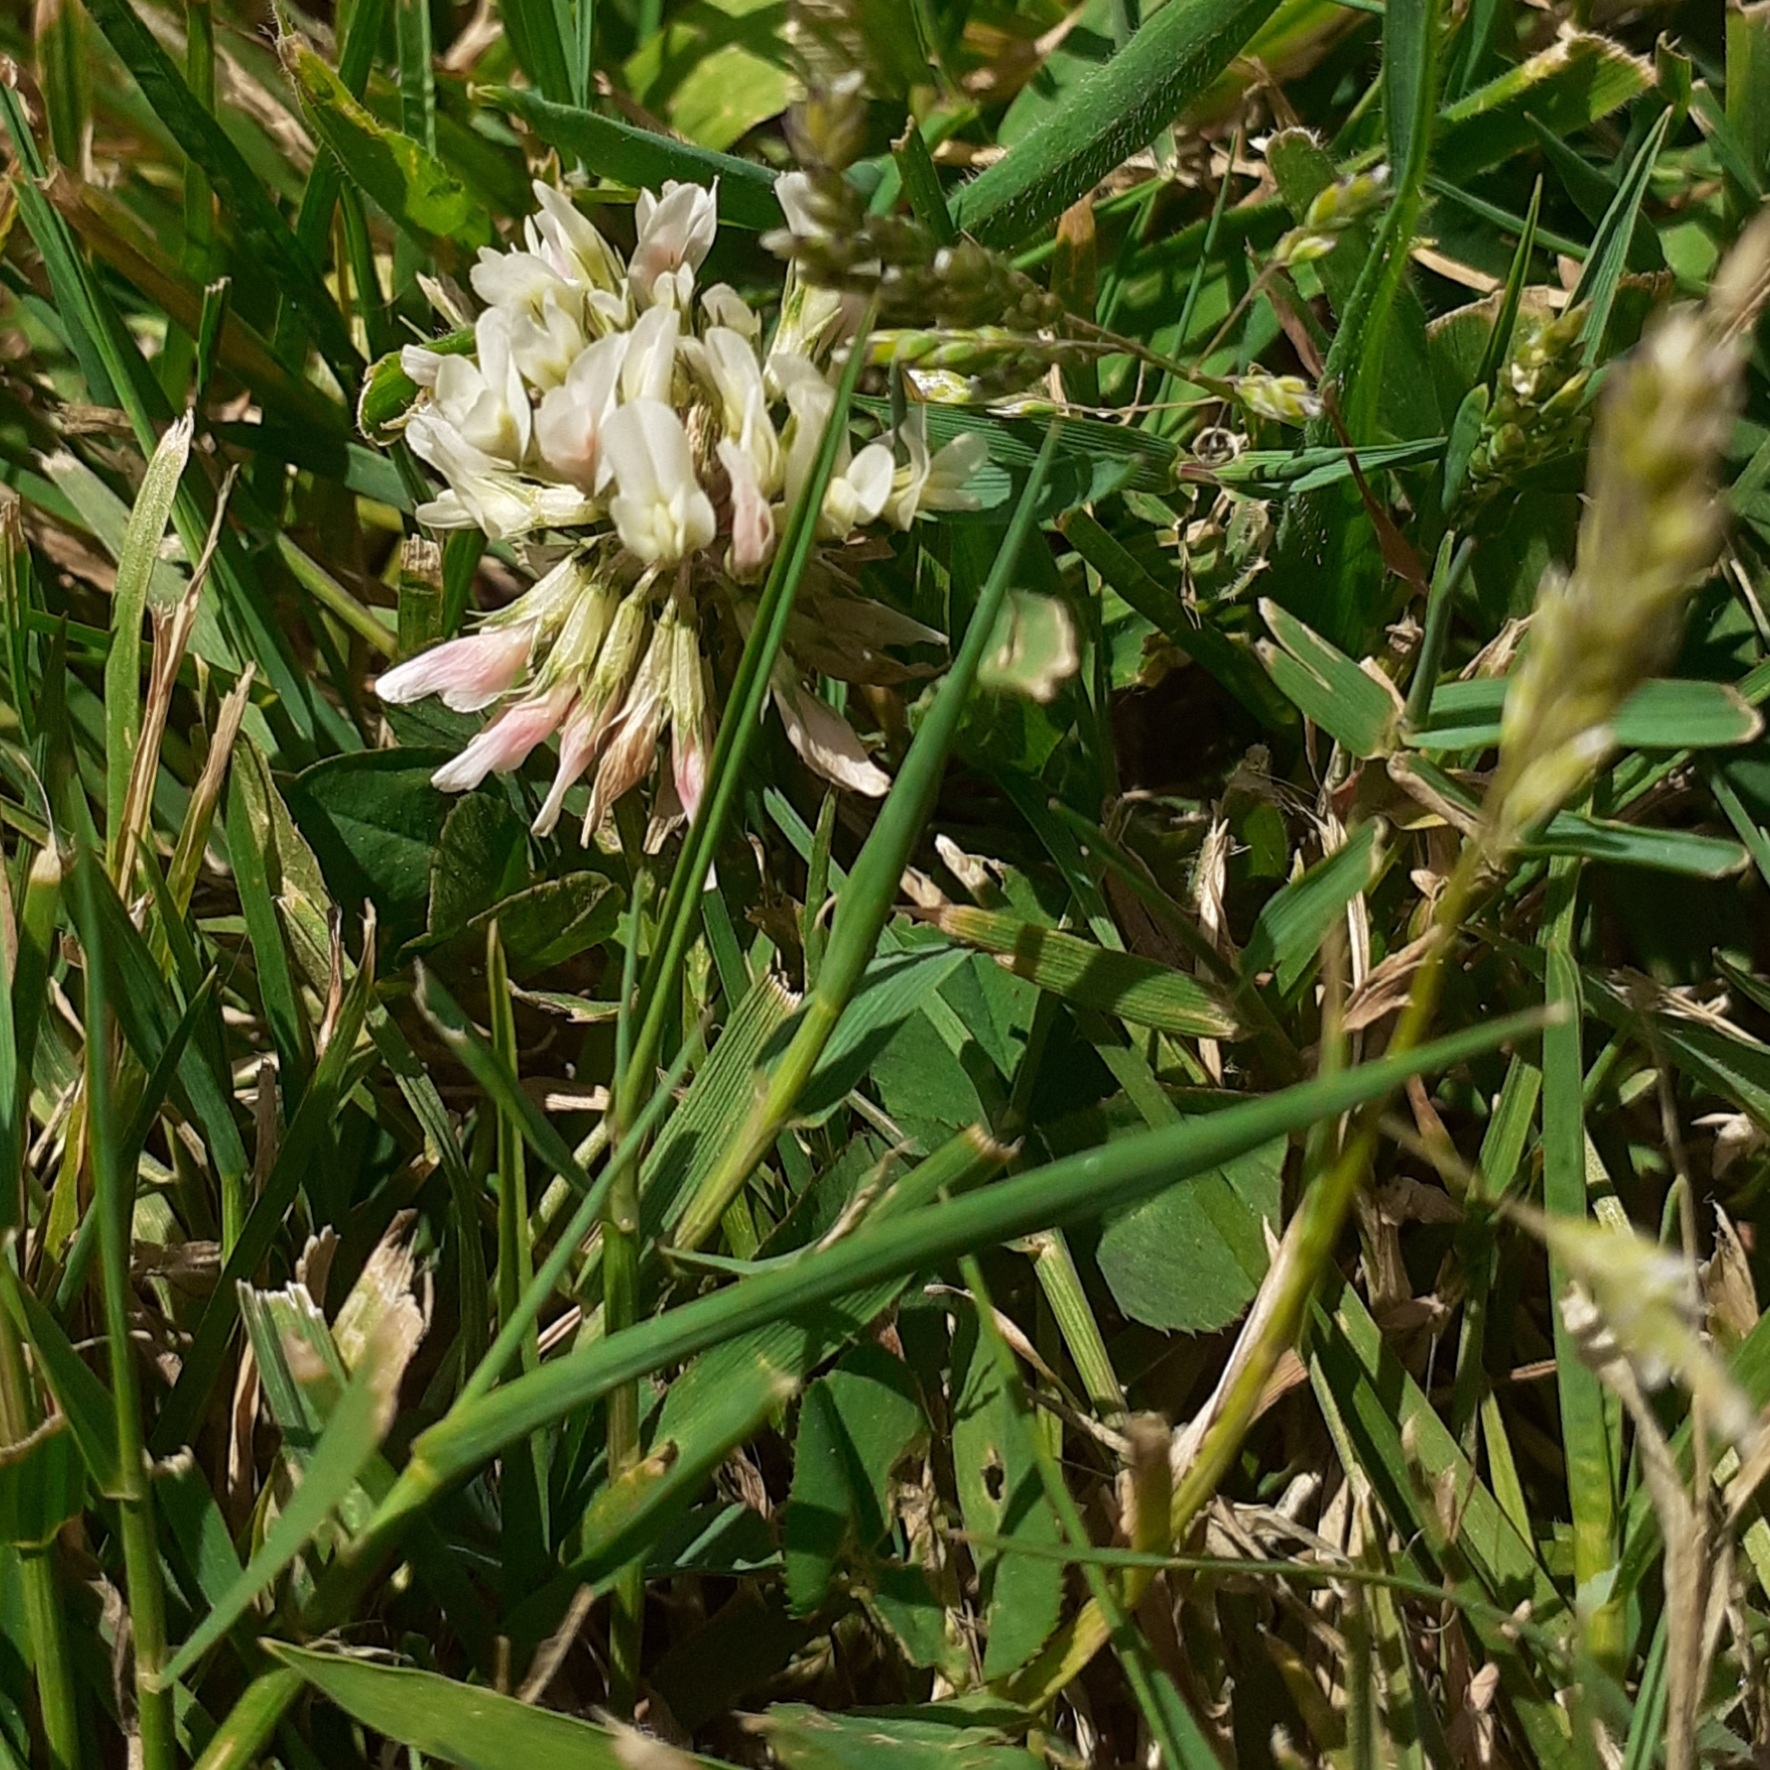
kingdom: Plantae
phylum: Tracheophyta
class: Magnoliopsida
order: Fabales
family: Fabaceae
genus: Trifolium
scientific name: Trifolium repens
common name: White clover
